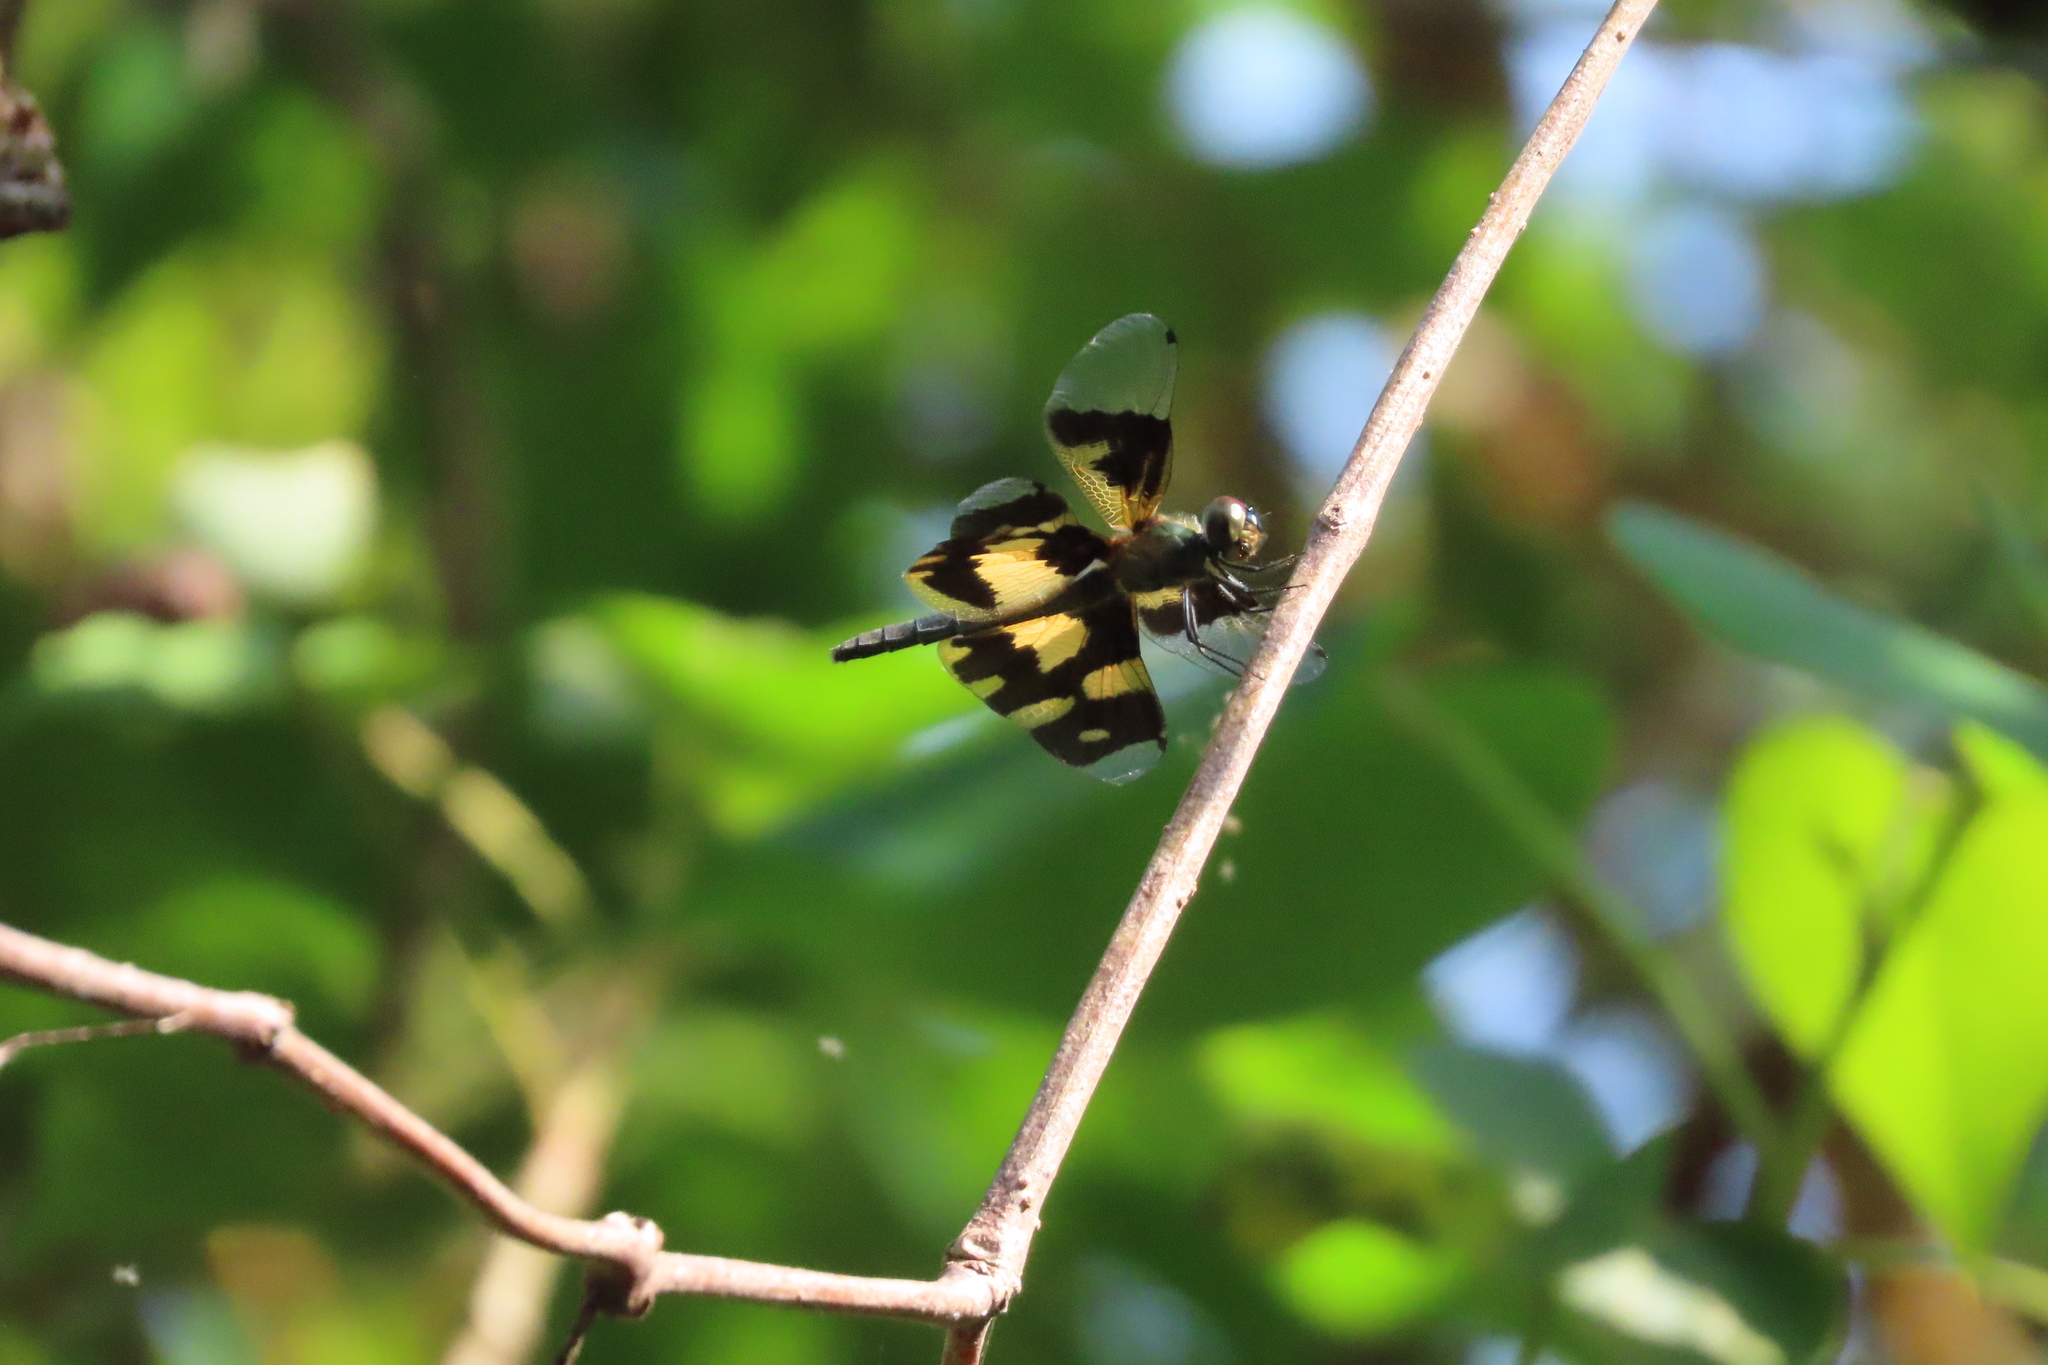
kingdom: Animalia
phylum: Arthropoda
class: Insecta
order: Odonata
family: Libellulidae
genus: Rhyothemis
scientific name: Rhyothemis variegata
